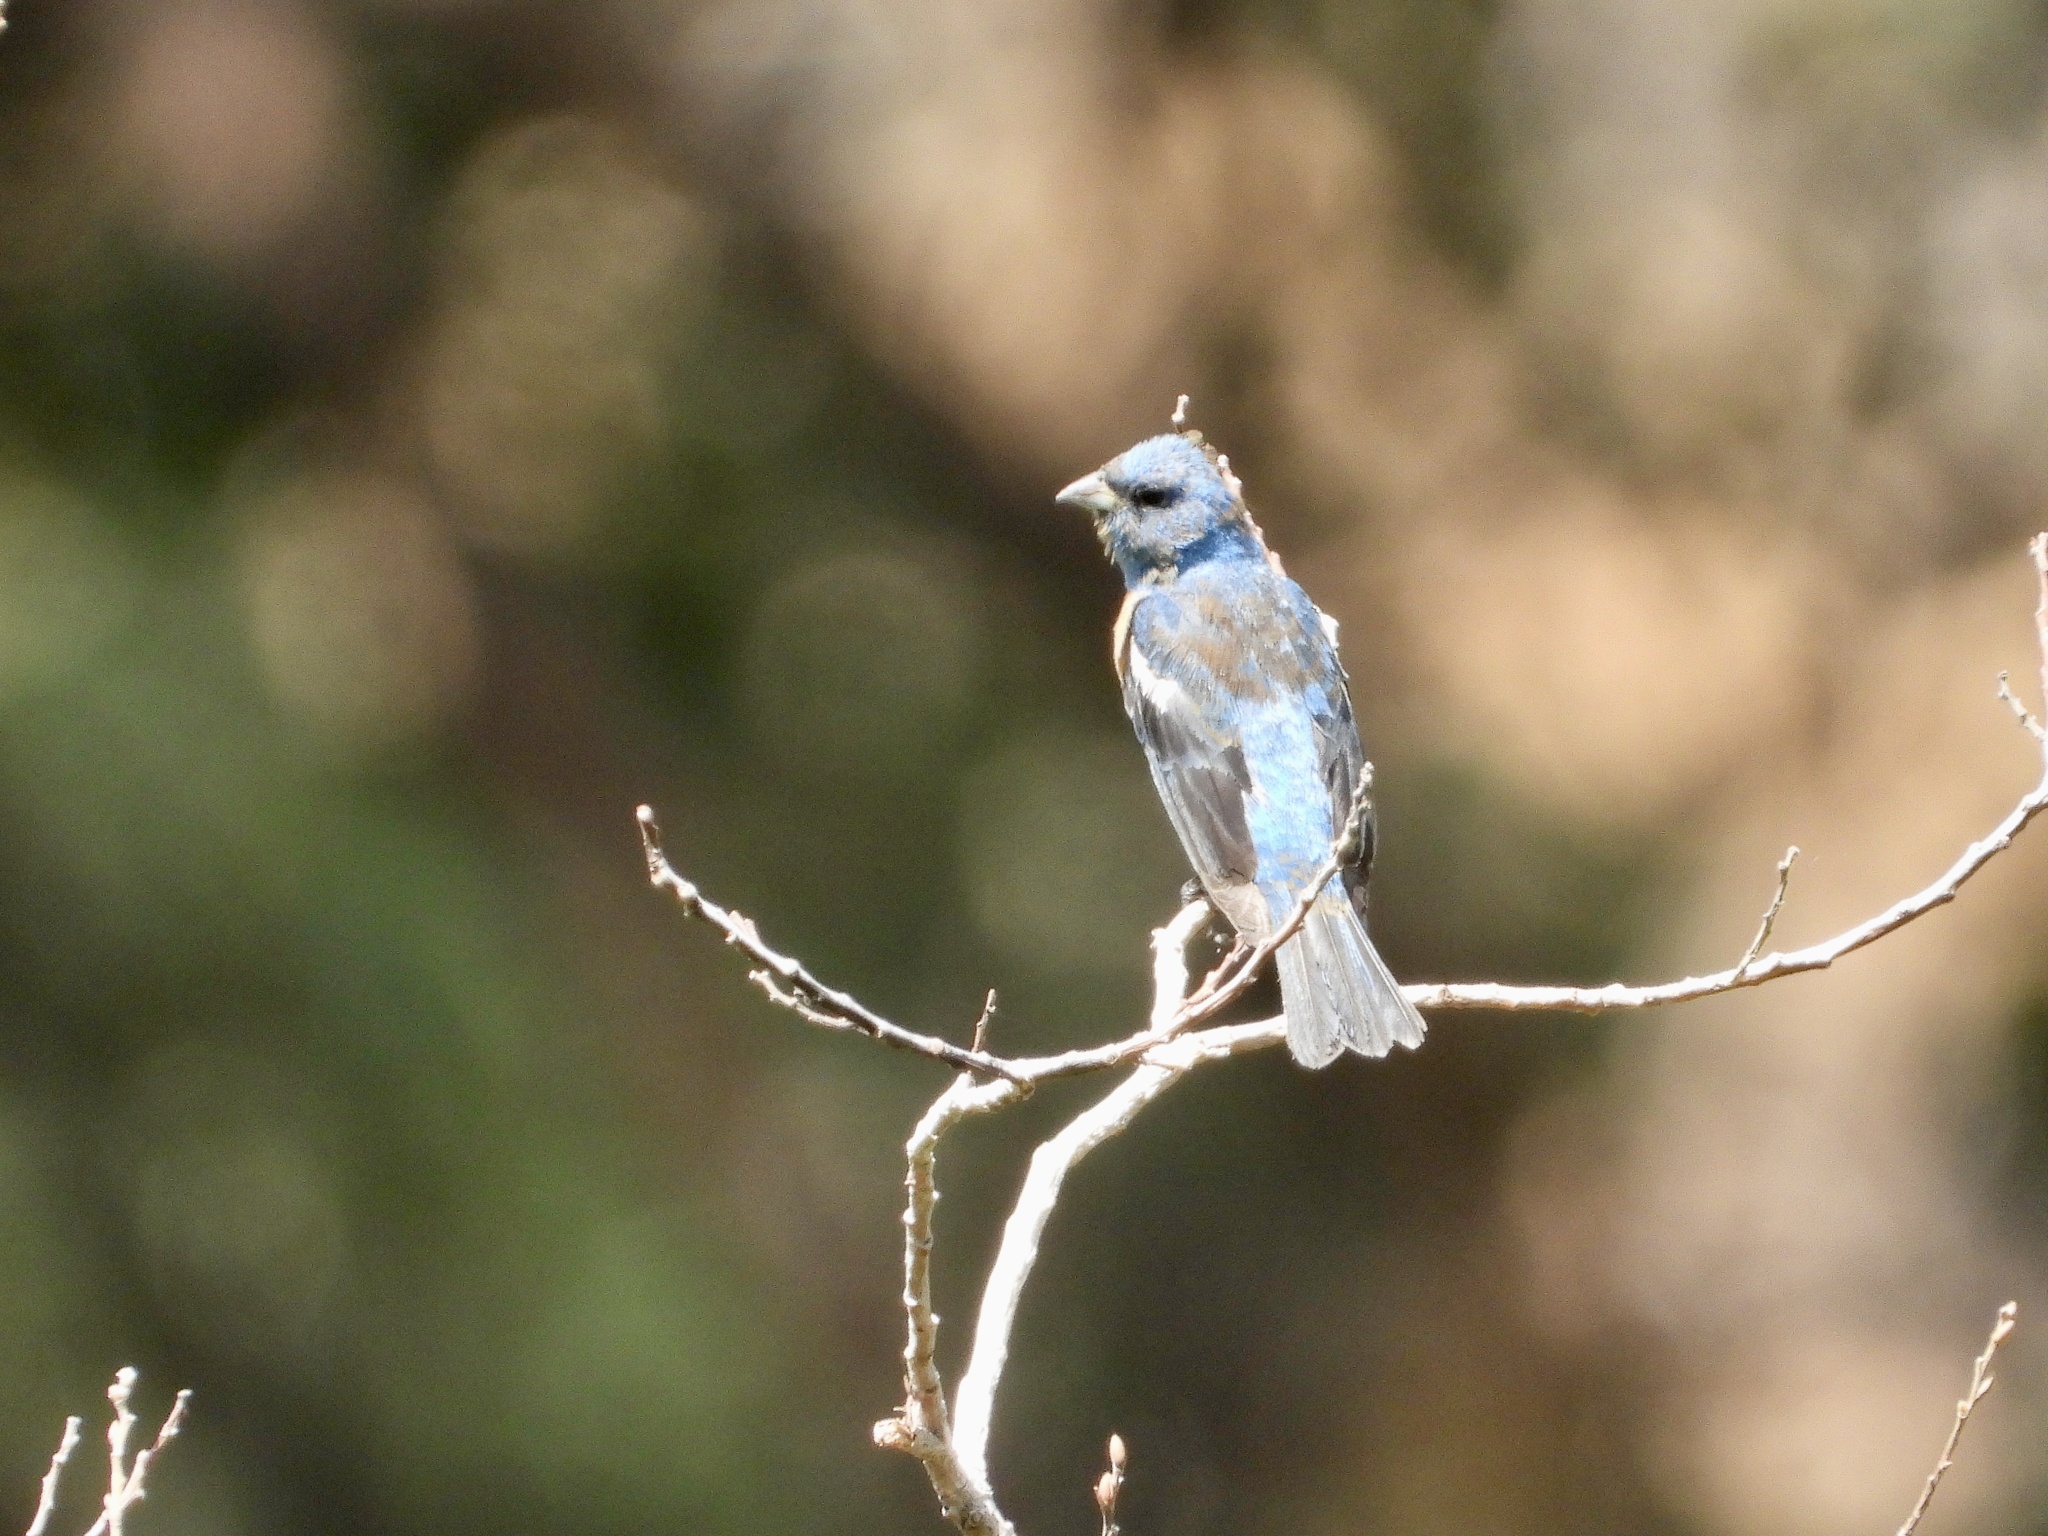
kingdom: Animalia
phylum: Chordata
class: Aves
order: Passeriformes
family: Cardinalidae
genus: Passerina
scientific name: Passerina amoena
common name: Lazuli bunting
